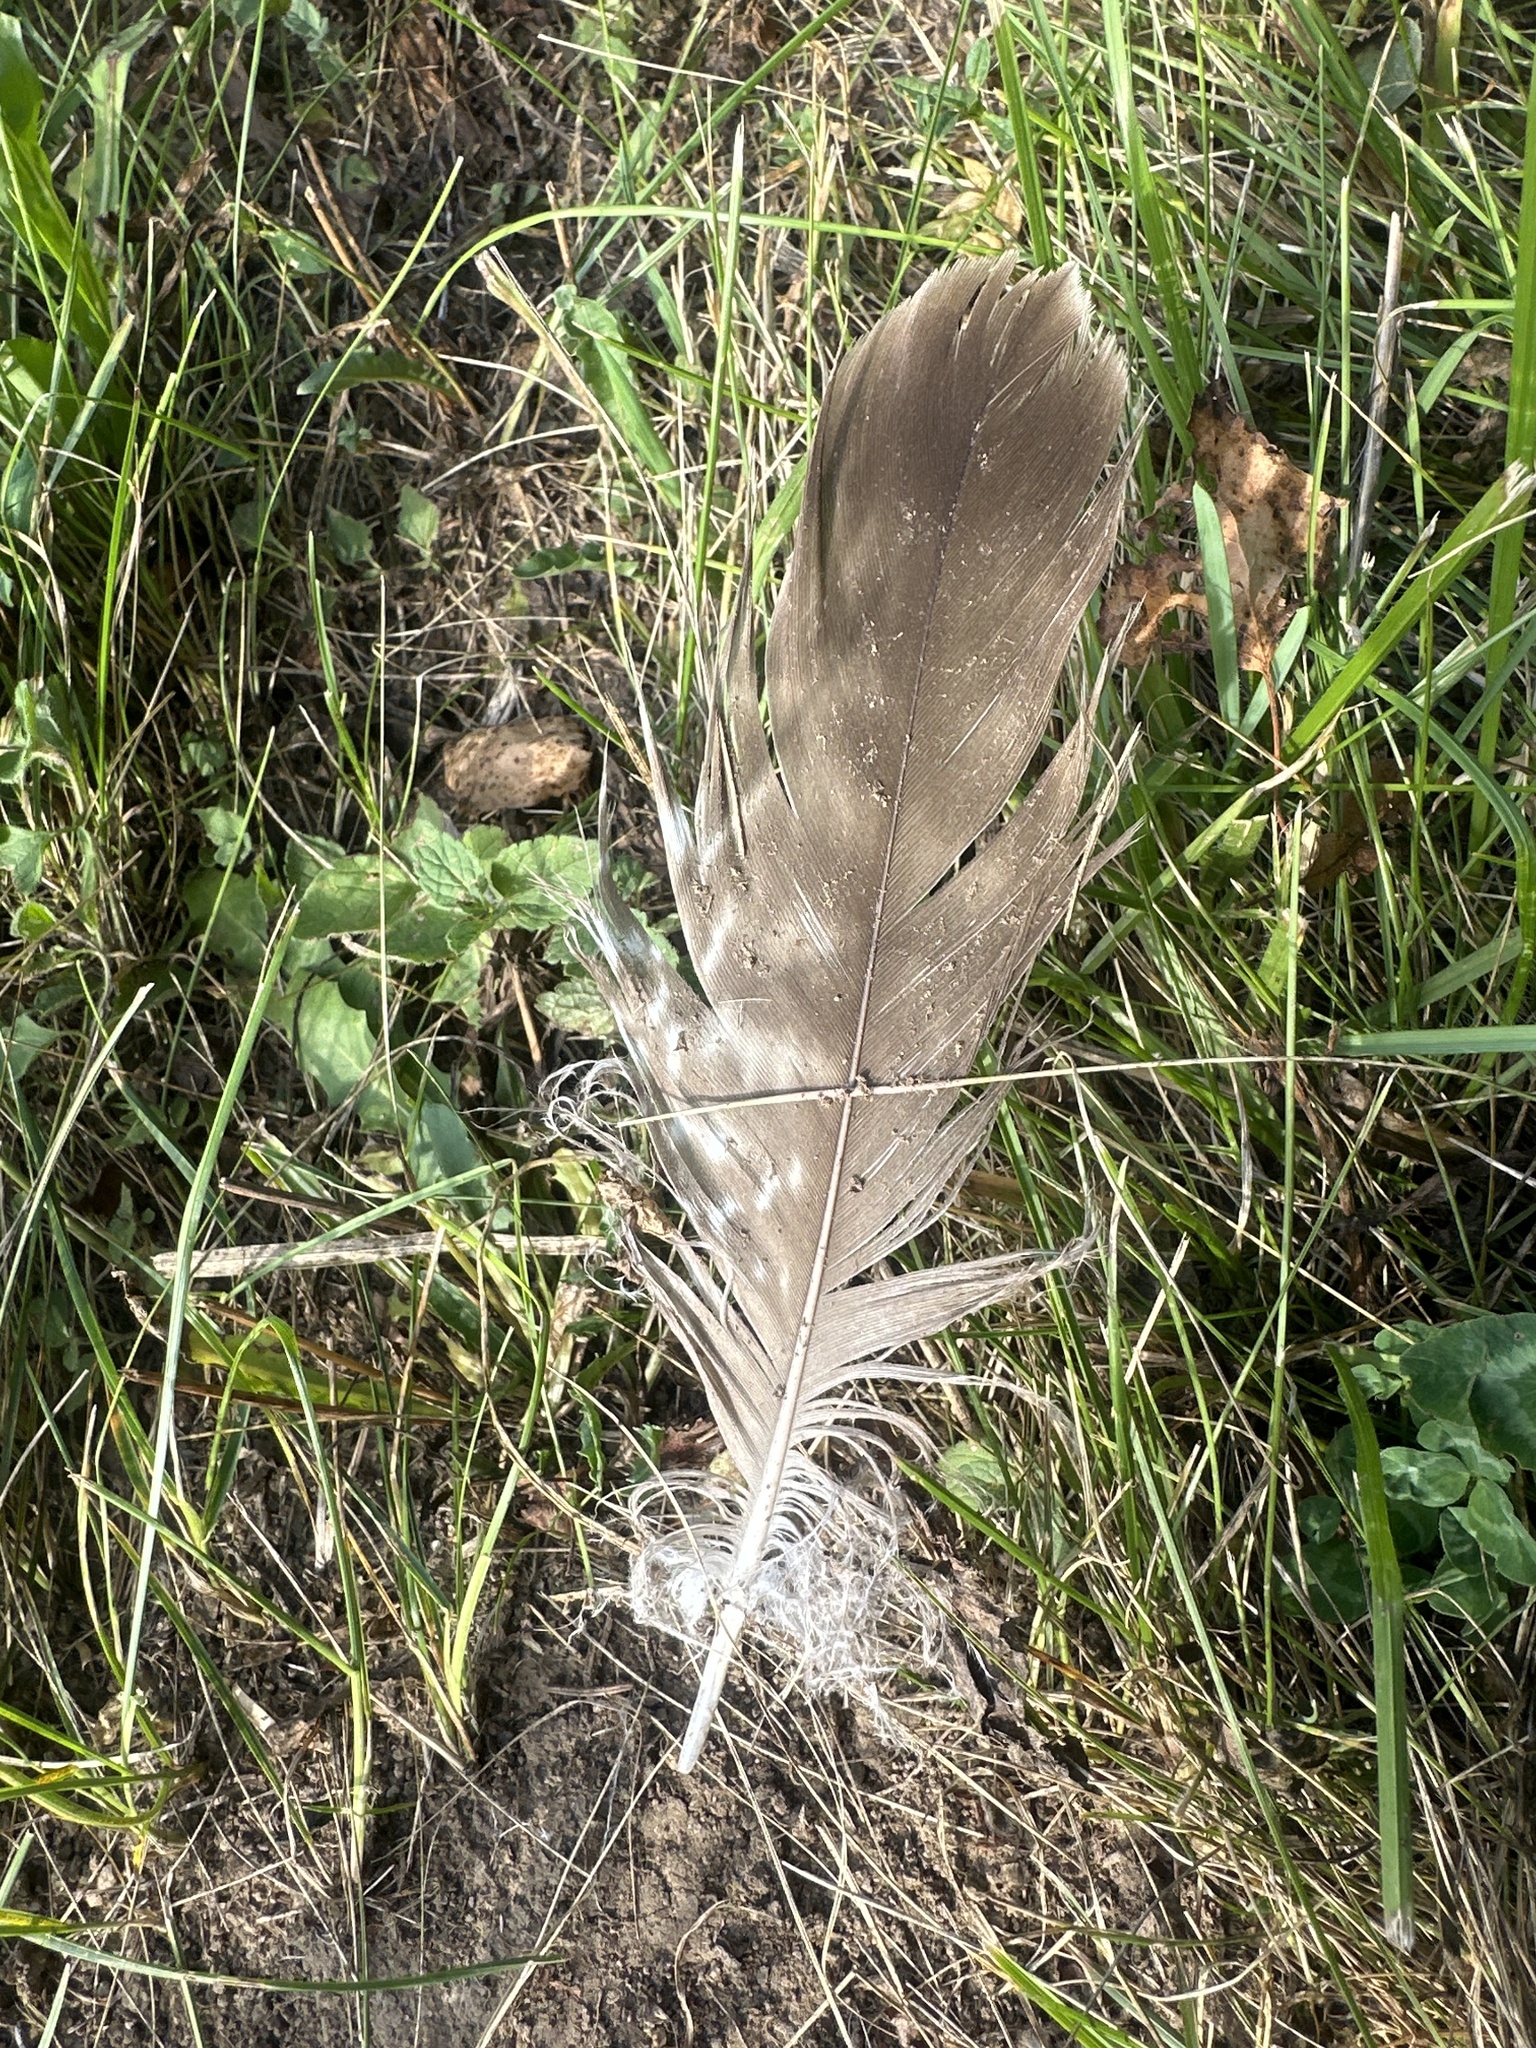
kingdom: Animalia
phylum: Chordata
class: Aves
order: Accipitriformes
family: Accipitridae
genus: Buteo
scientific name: Buteo buteo
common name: Common buzzard
